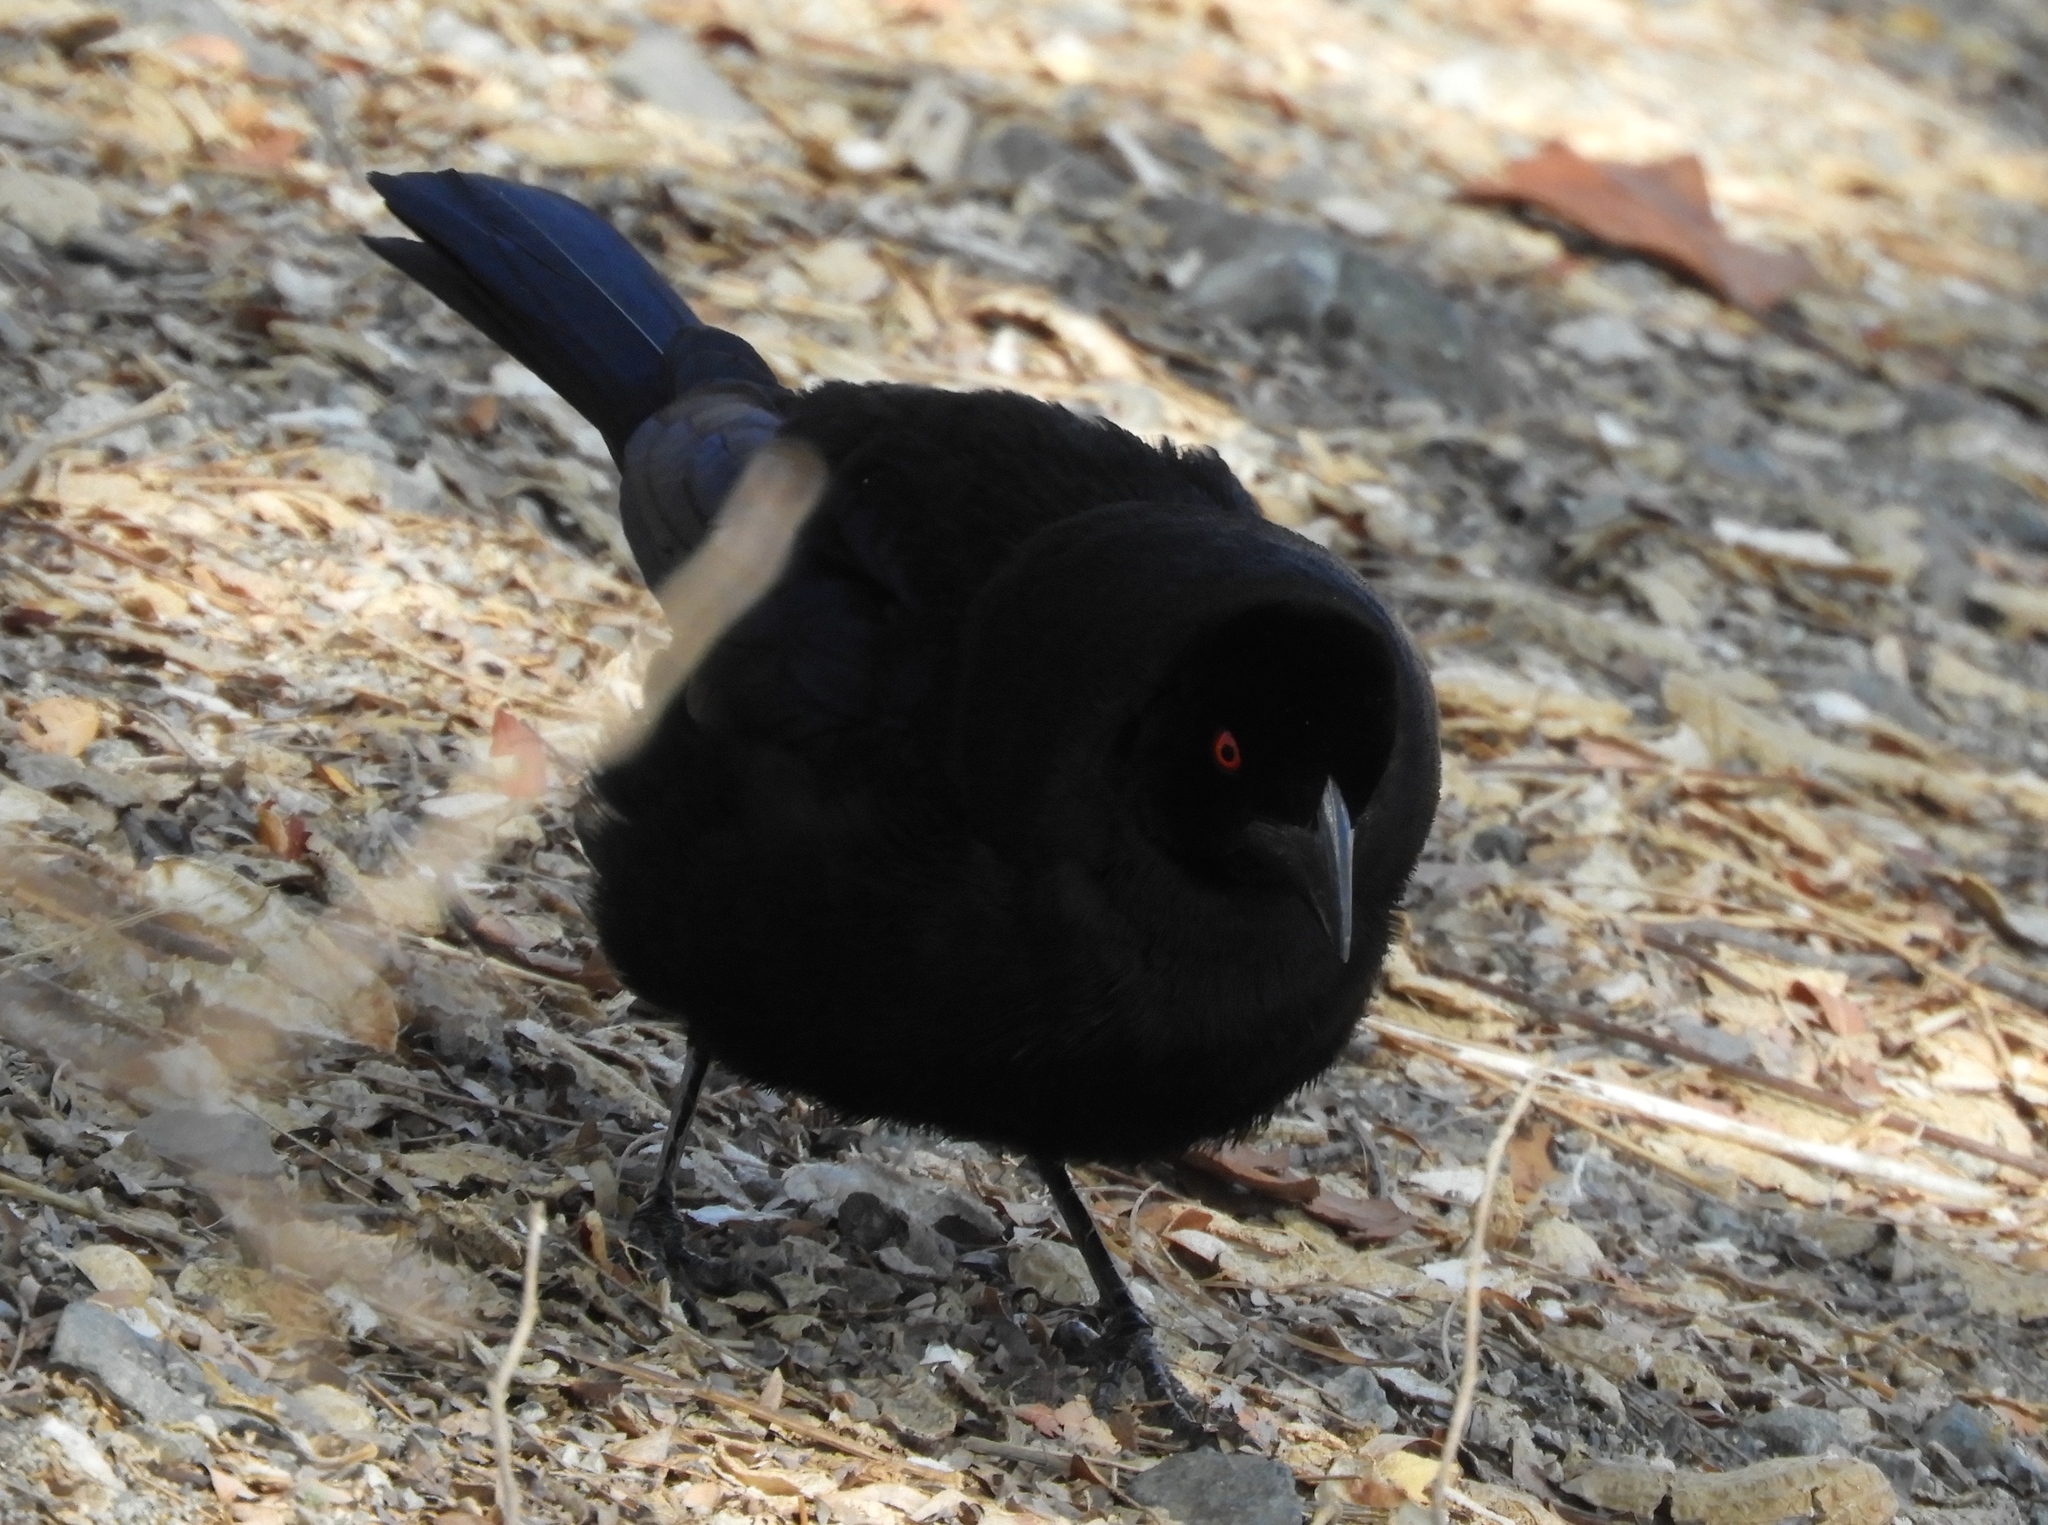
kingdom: Animalia
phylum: Chordata
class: Aves
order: Passeriformes
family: Icteridae
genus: Molothrus
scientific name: Molothrus aeneus
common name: Bronzed cowbird
